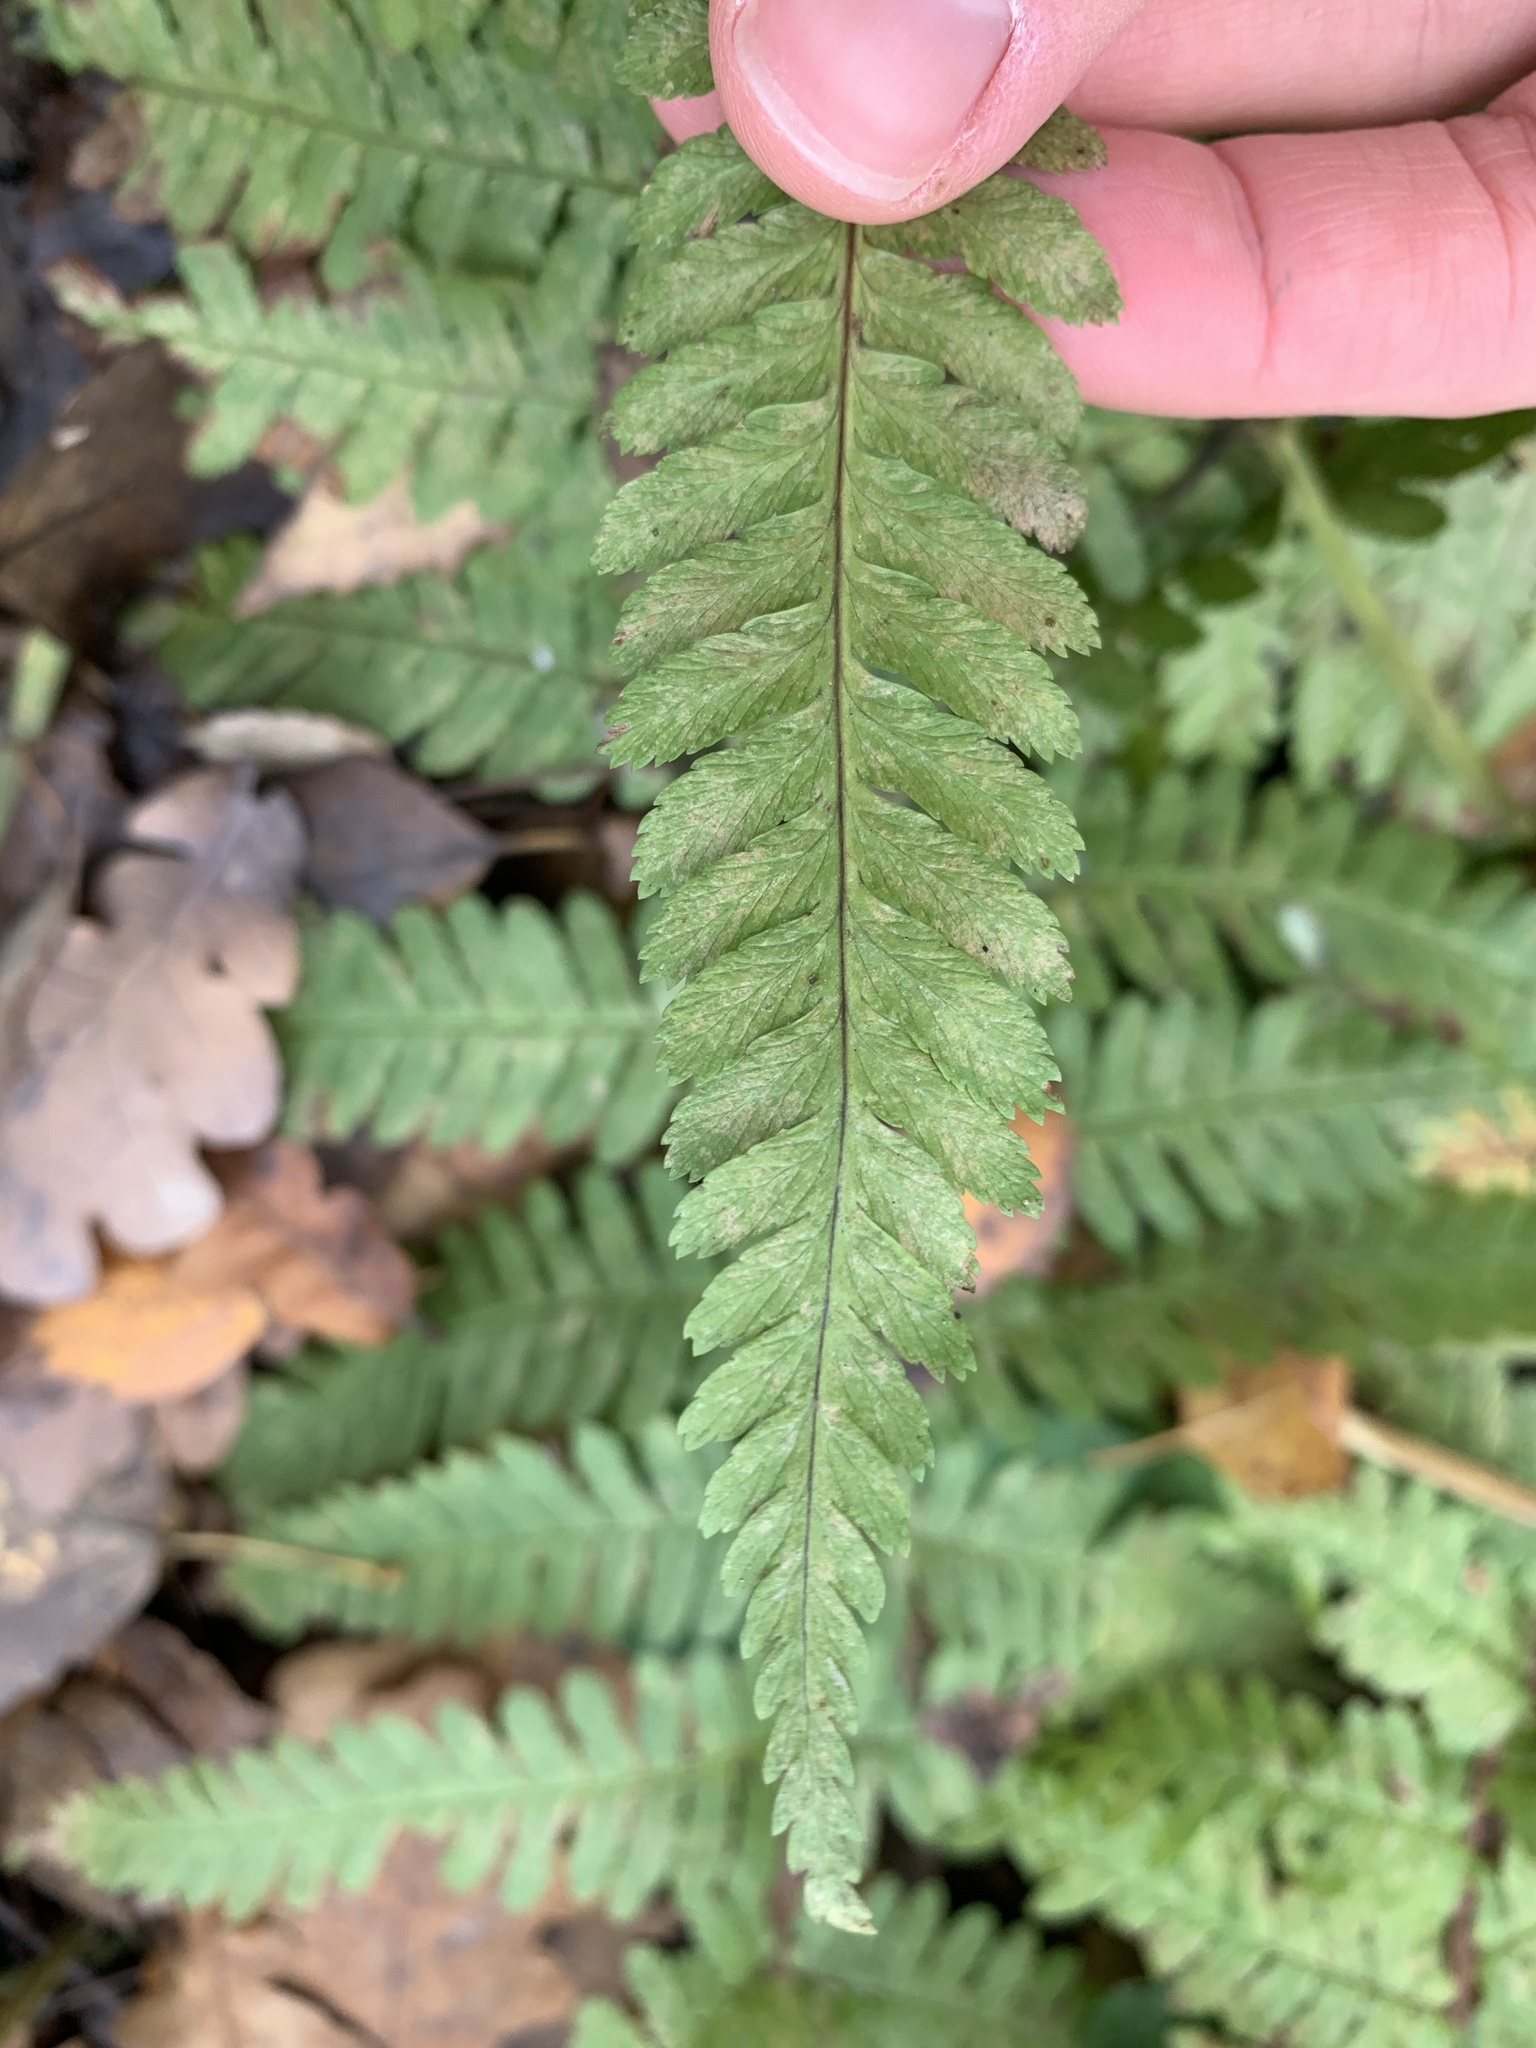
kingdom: Plantae
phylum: Tracheophyta
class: Polypodiopsida
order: Polypodiales
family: Dryopteridaceae
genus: Dryopteris
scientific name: Dryopteris filix-mas
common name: Male fern
